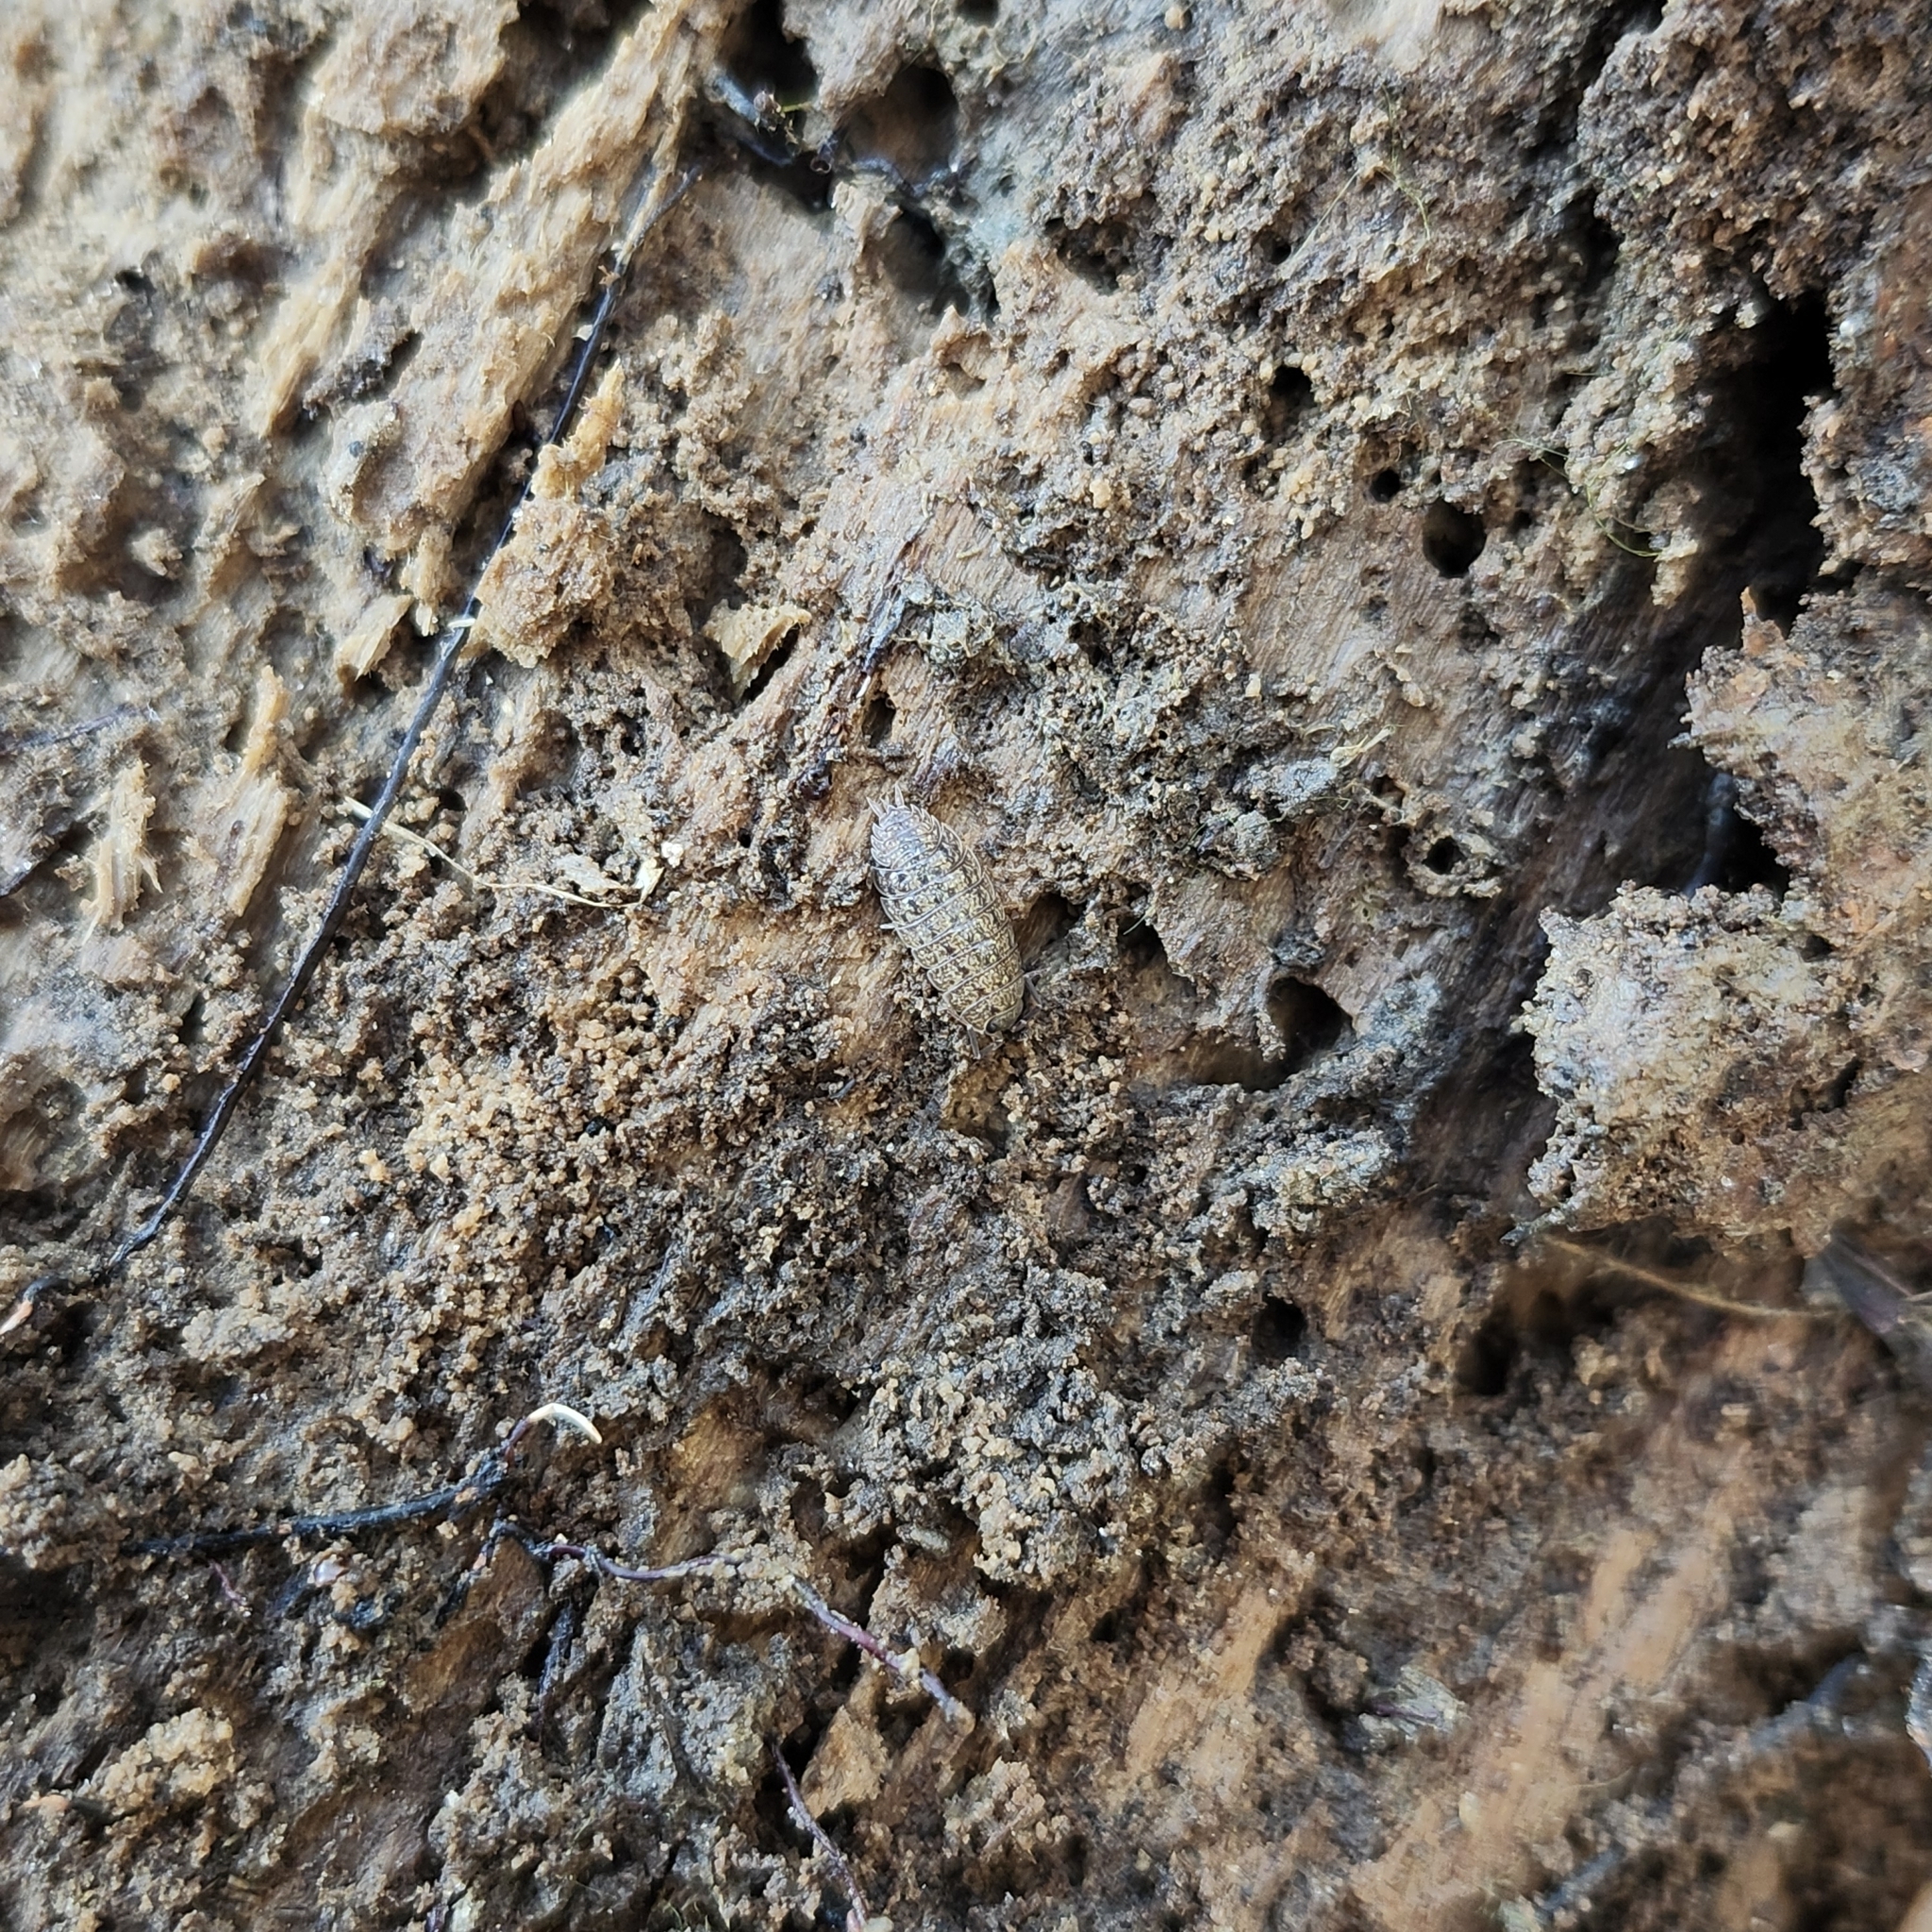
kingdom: Animalia
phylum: Arthropoda
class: Malacostraca
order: Isopoda
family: Porcellionidae
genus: Porcellionides
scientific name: Porcellionides virgatus
